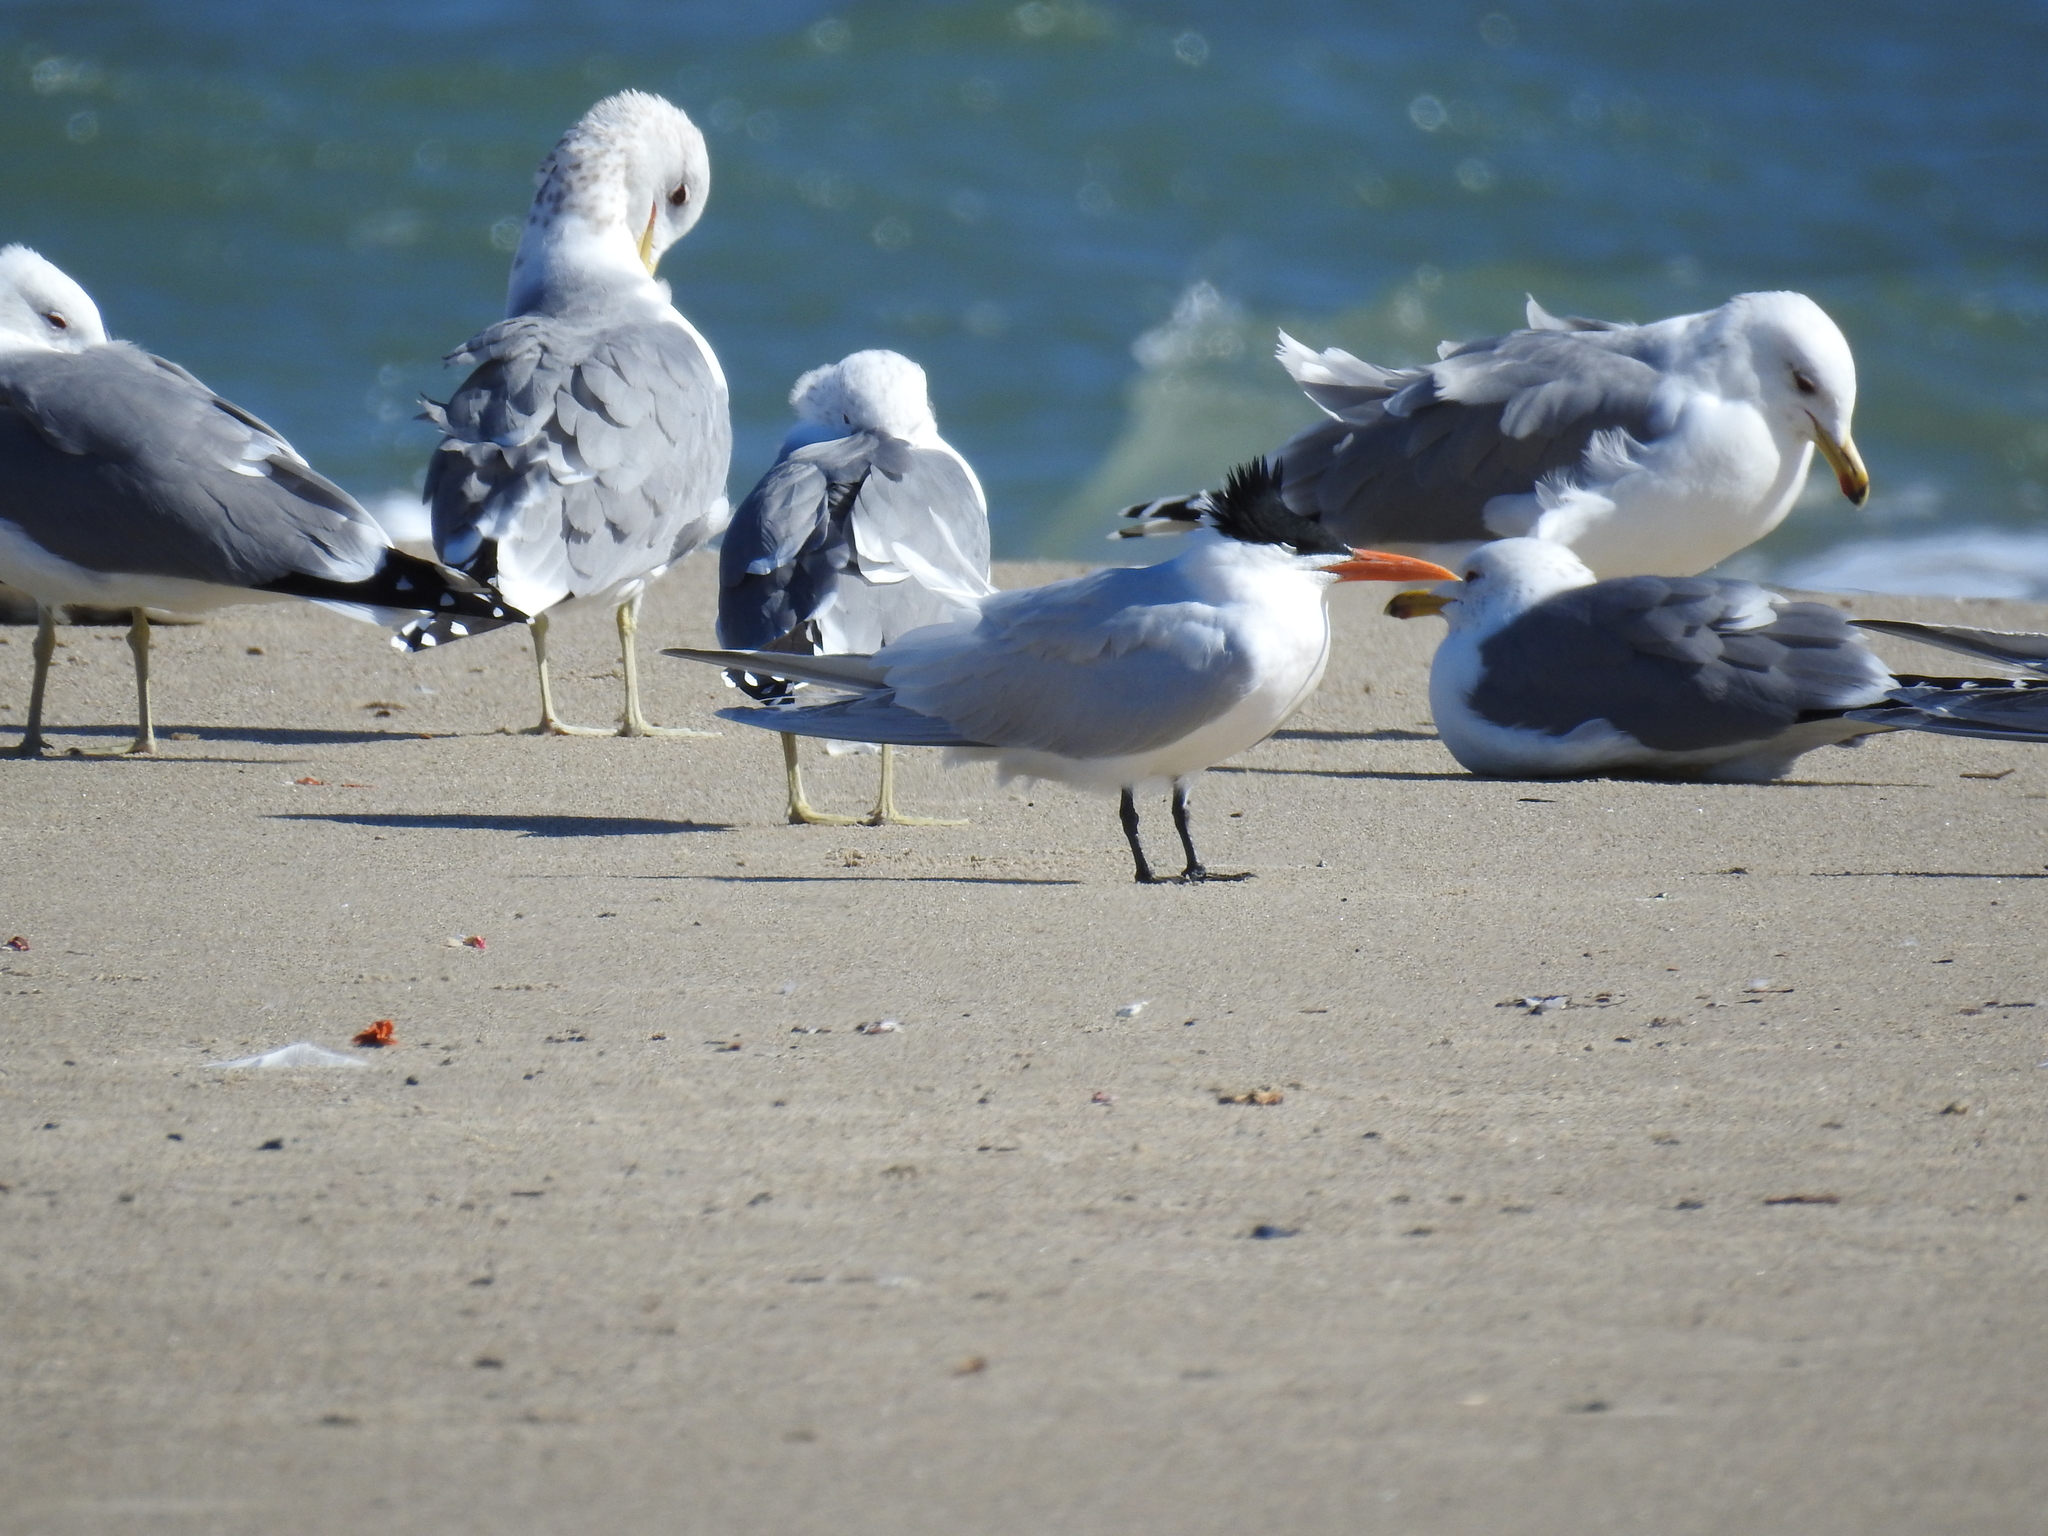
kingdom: Animalia
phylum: Chordata
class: Aves
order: Charadriiformes
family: Laridae
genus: Thalasseus
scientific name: Thalasseus maximus
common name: Royal tern
